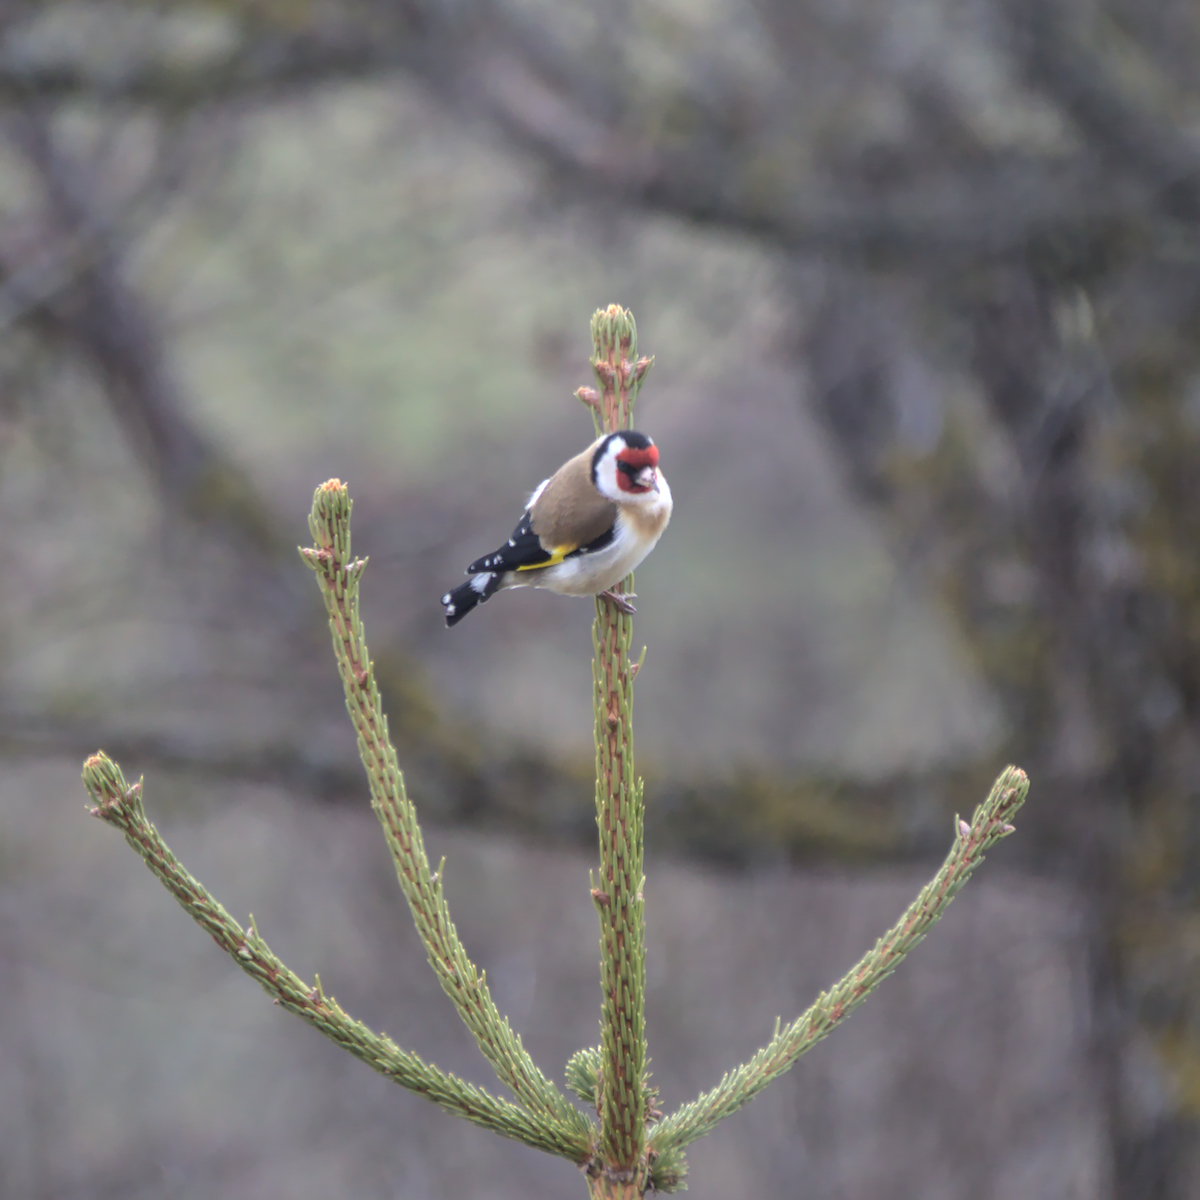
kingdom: Animalia
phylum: Chordata
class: Aves
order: Passeriformes
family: Fringillidae
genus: Carduelis
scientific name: Carduelis carduelis
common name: European goldfinch
